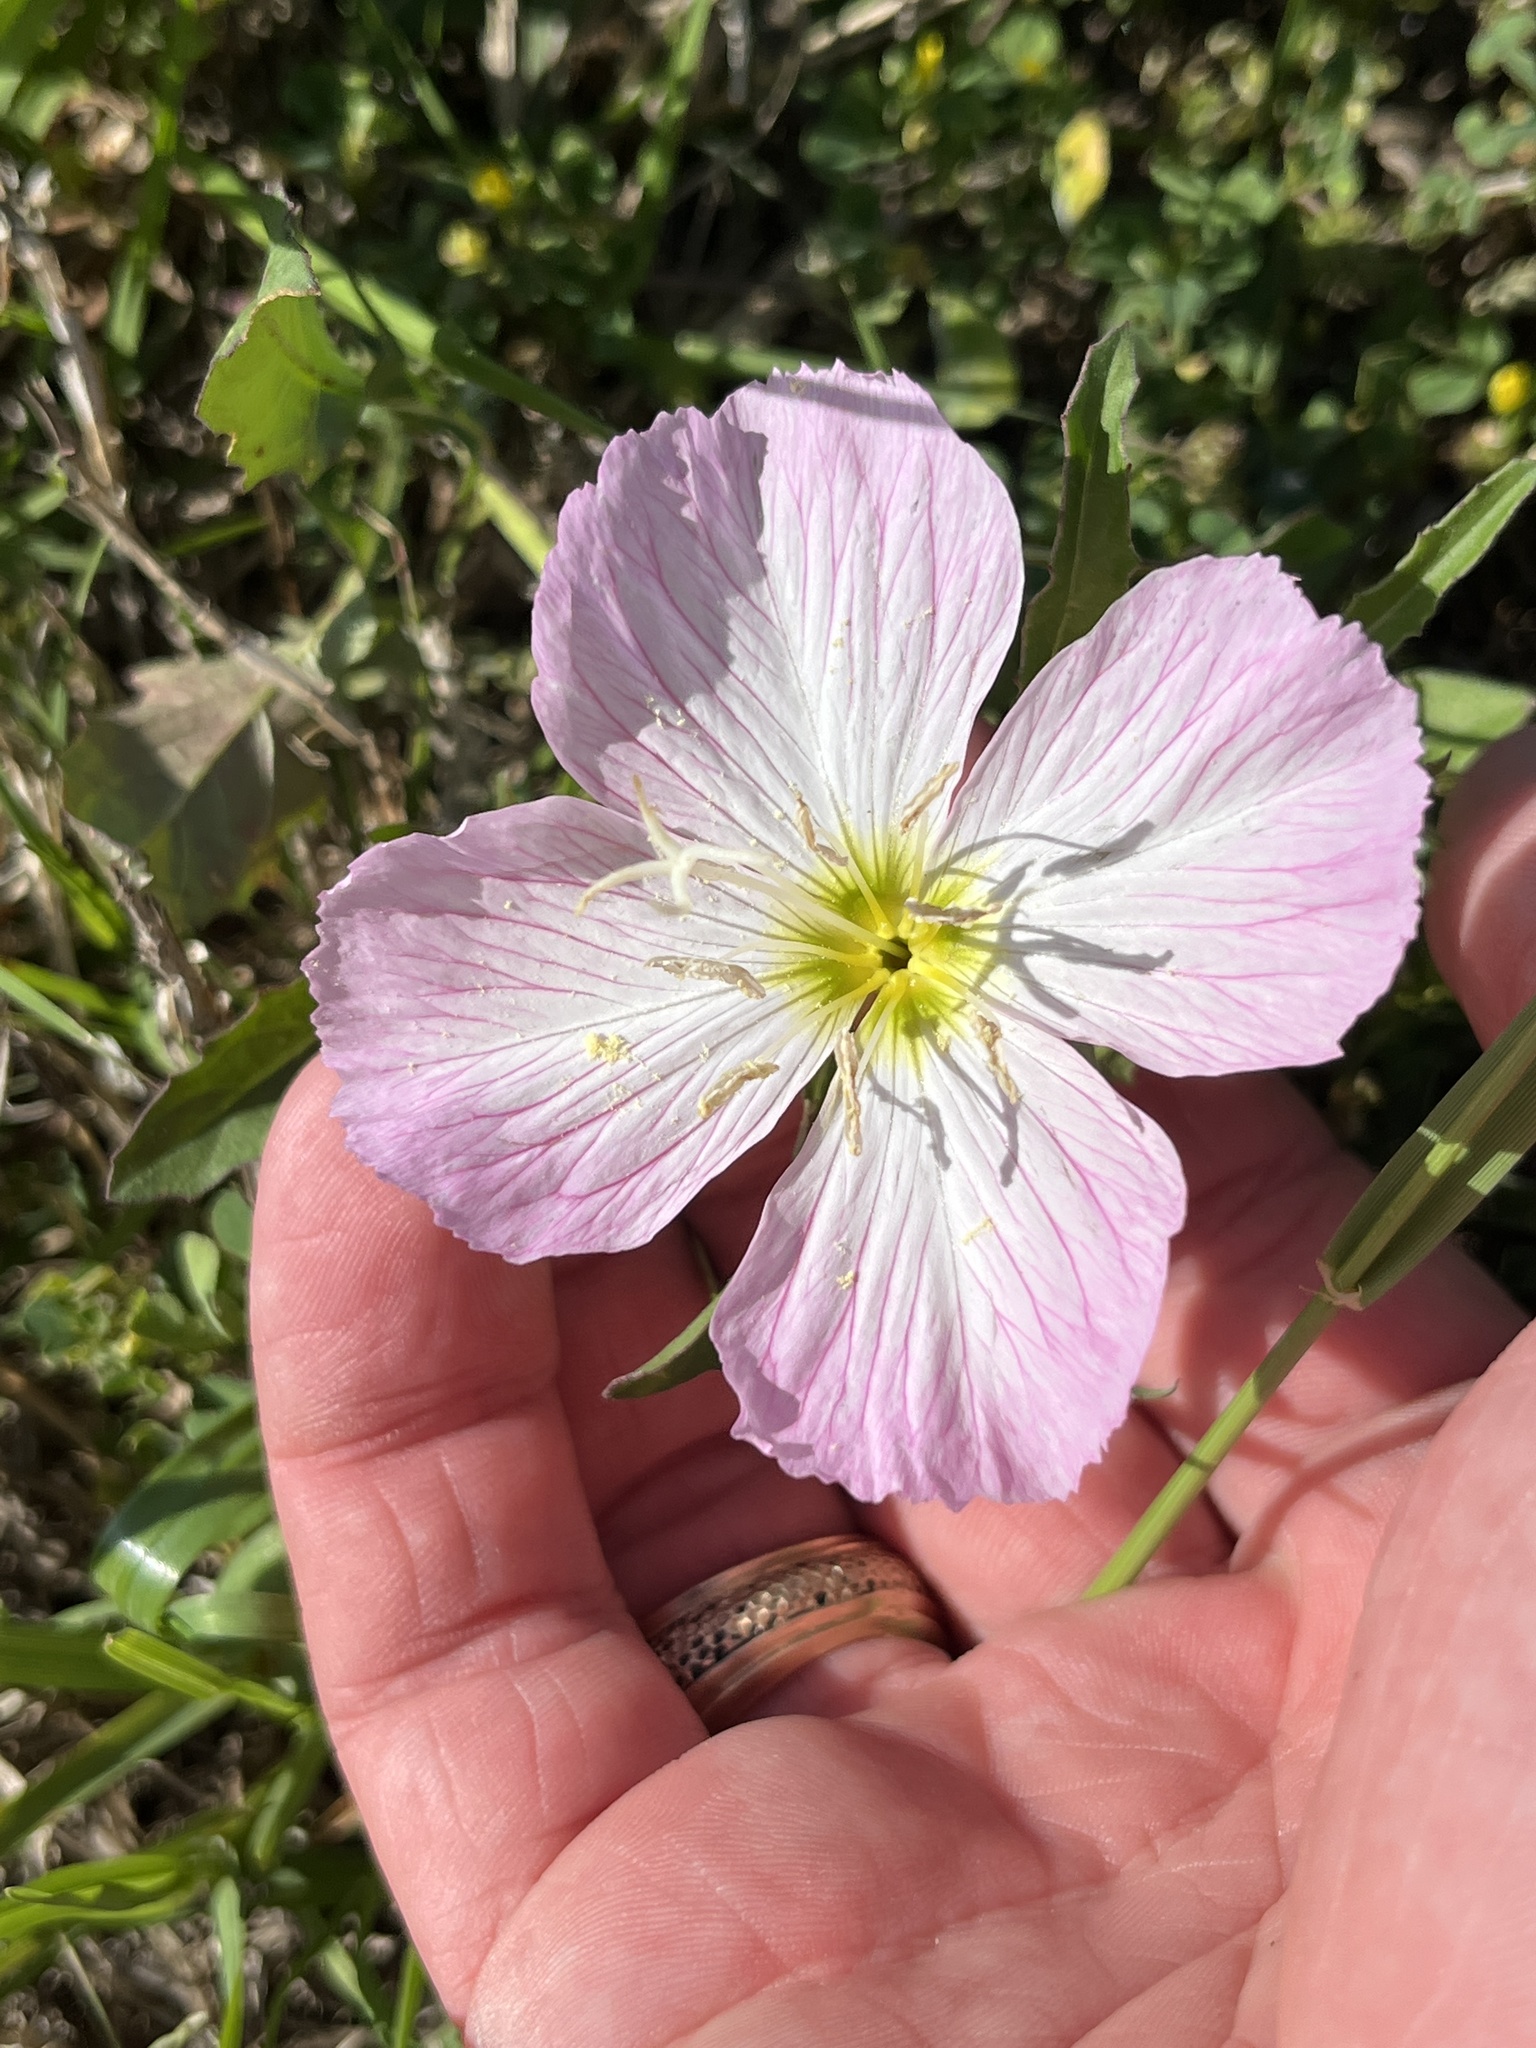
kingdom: Plantae
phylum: Tracheophyta
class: Magnoliopsida
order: Myrtales
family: Onagraceae
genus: Oenothera
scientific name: Oenothera speciosa
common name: White evening-primrose
